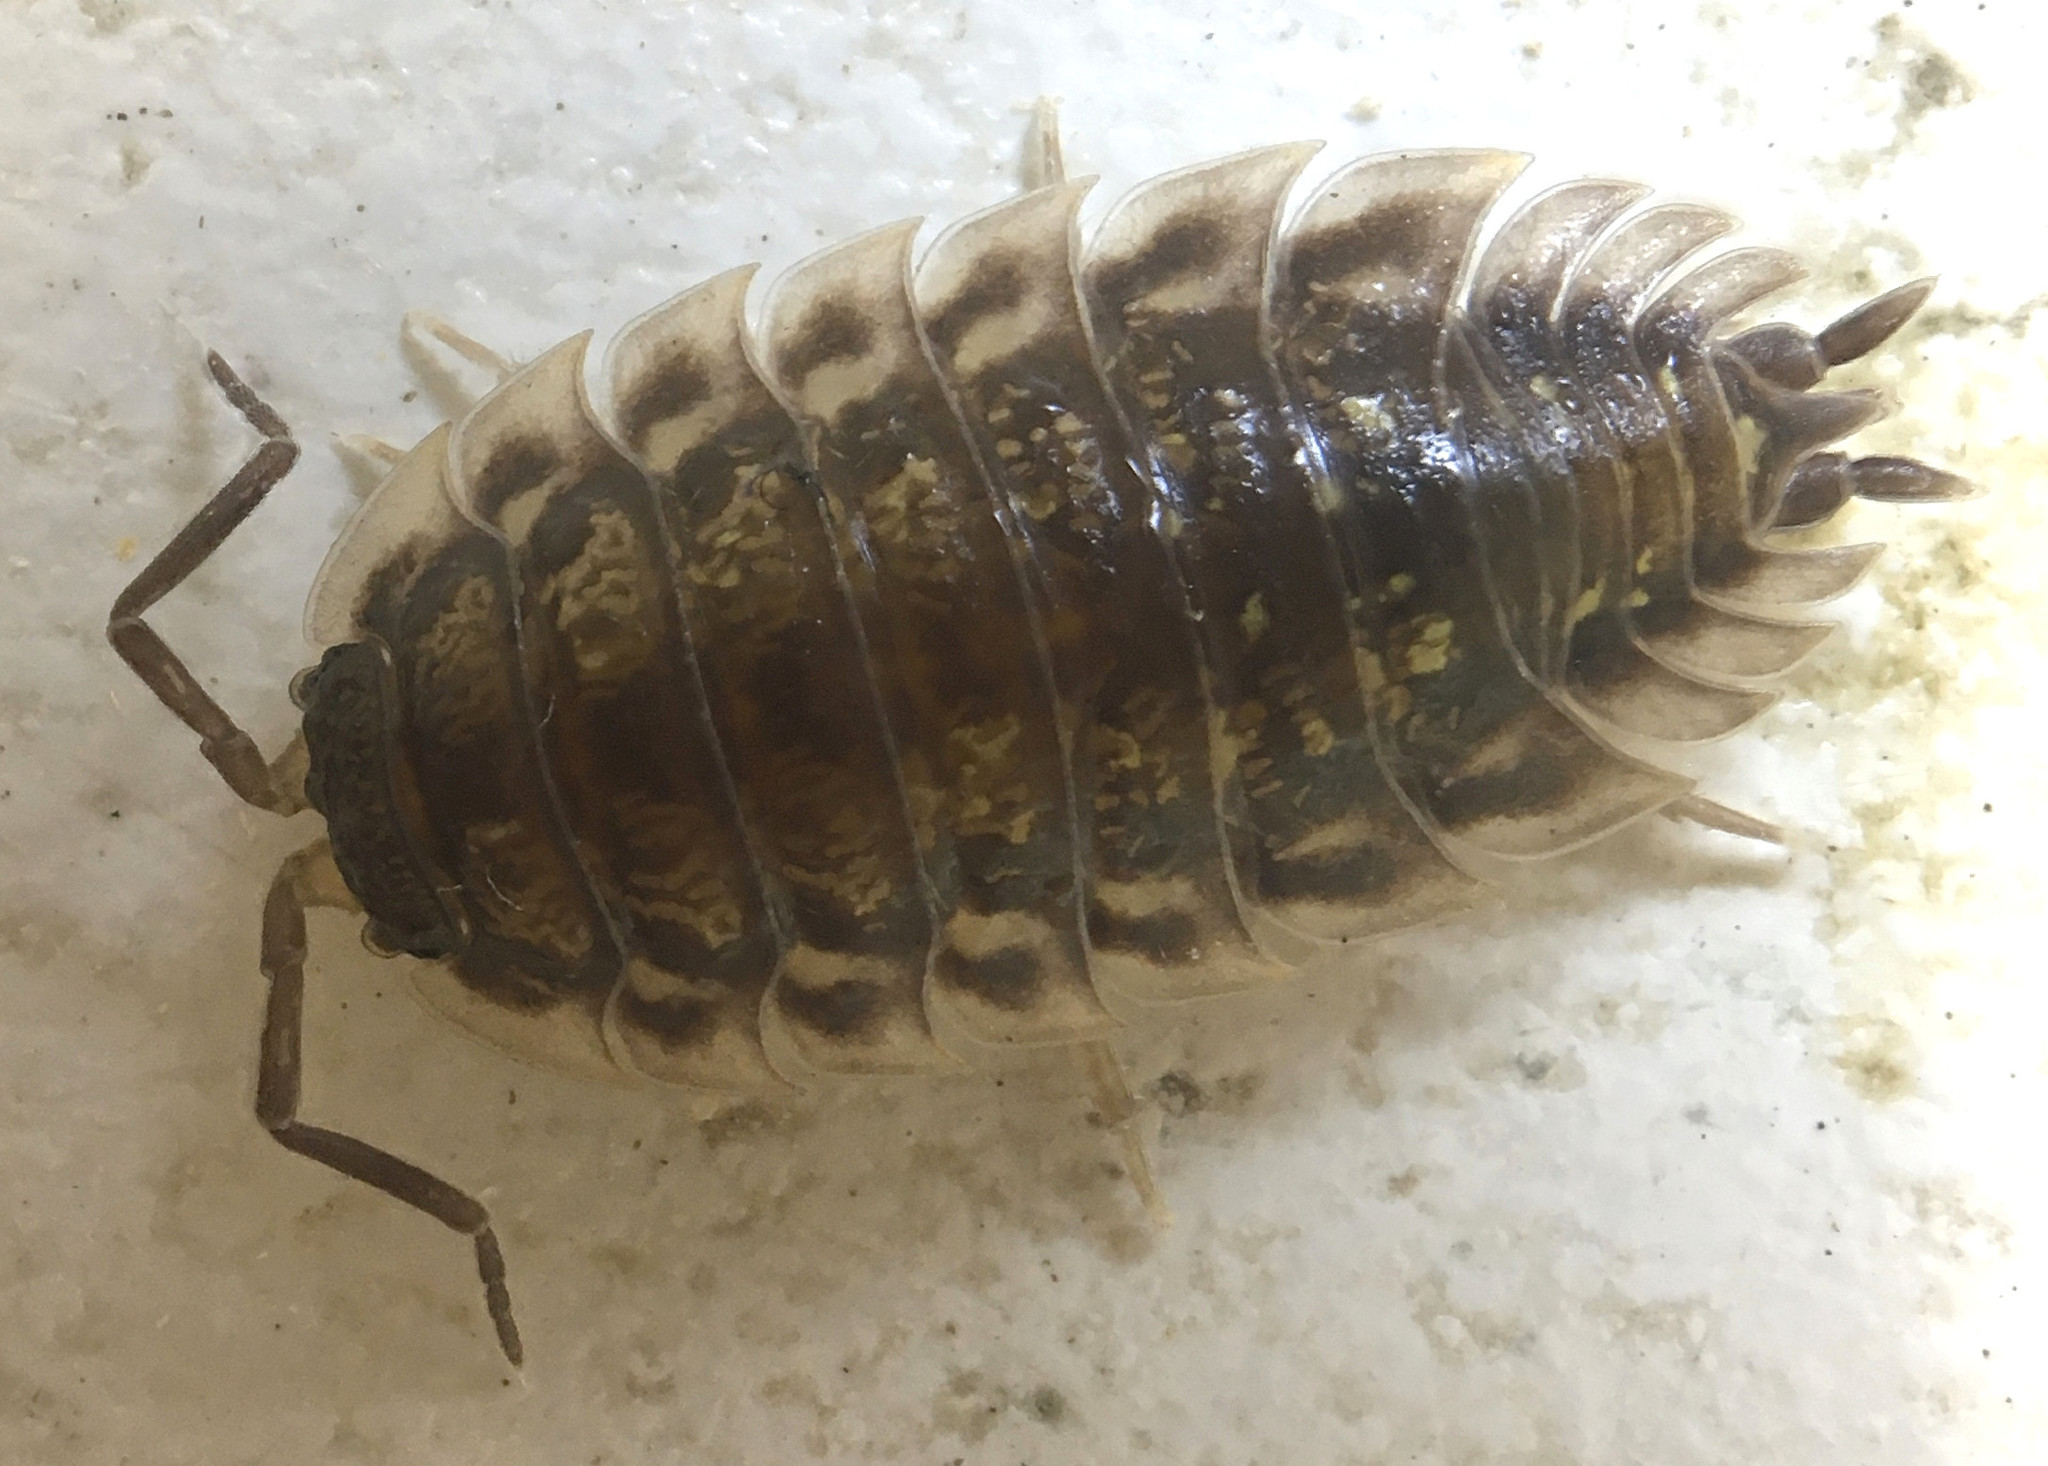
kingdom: Animalia
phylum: Arthropoda
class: Malacostraca
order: Isopoda
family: Oniscidae
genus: Oniscus
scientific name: Oniscus asellus
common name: Common shiny woodlouse
